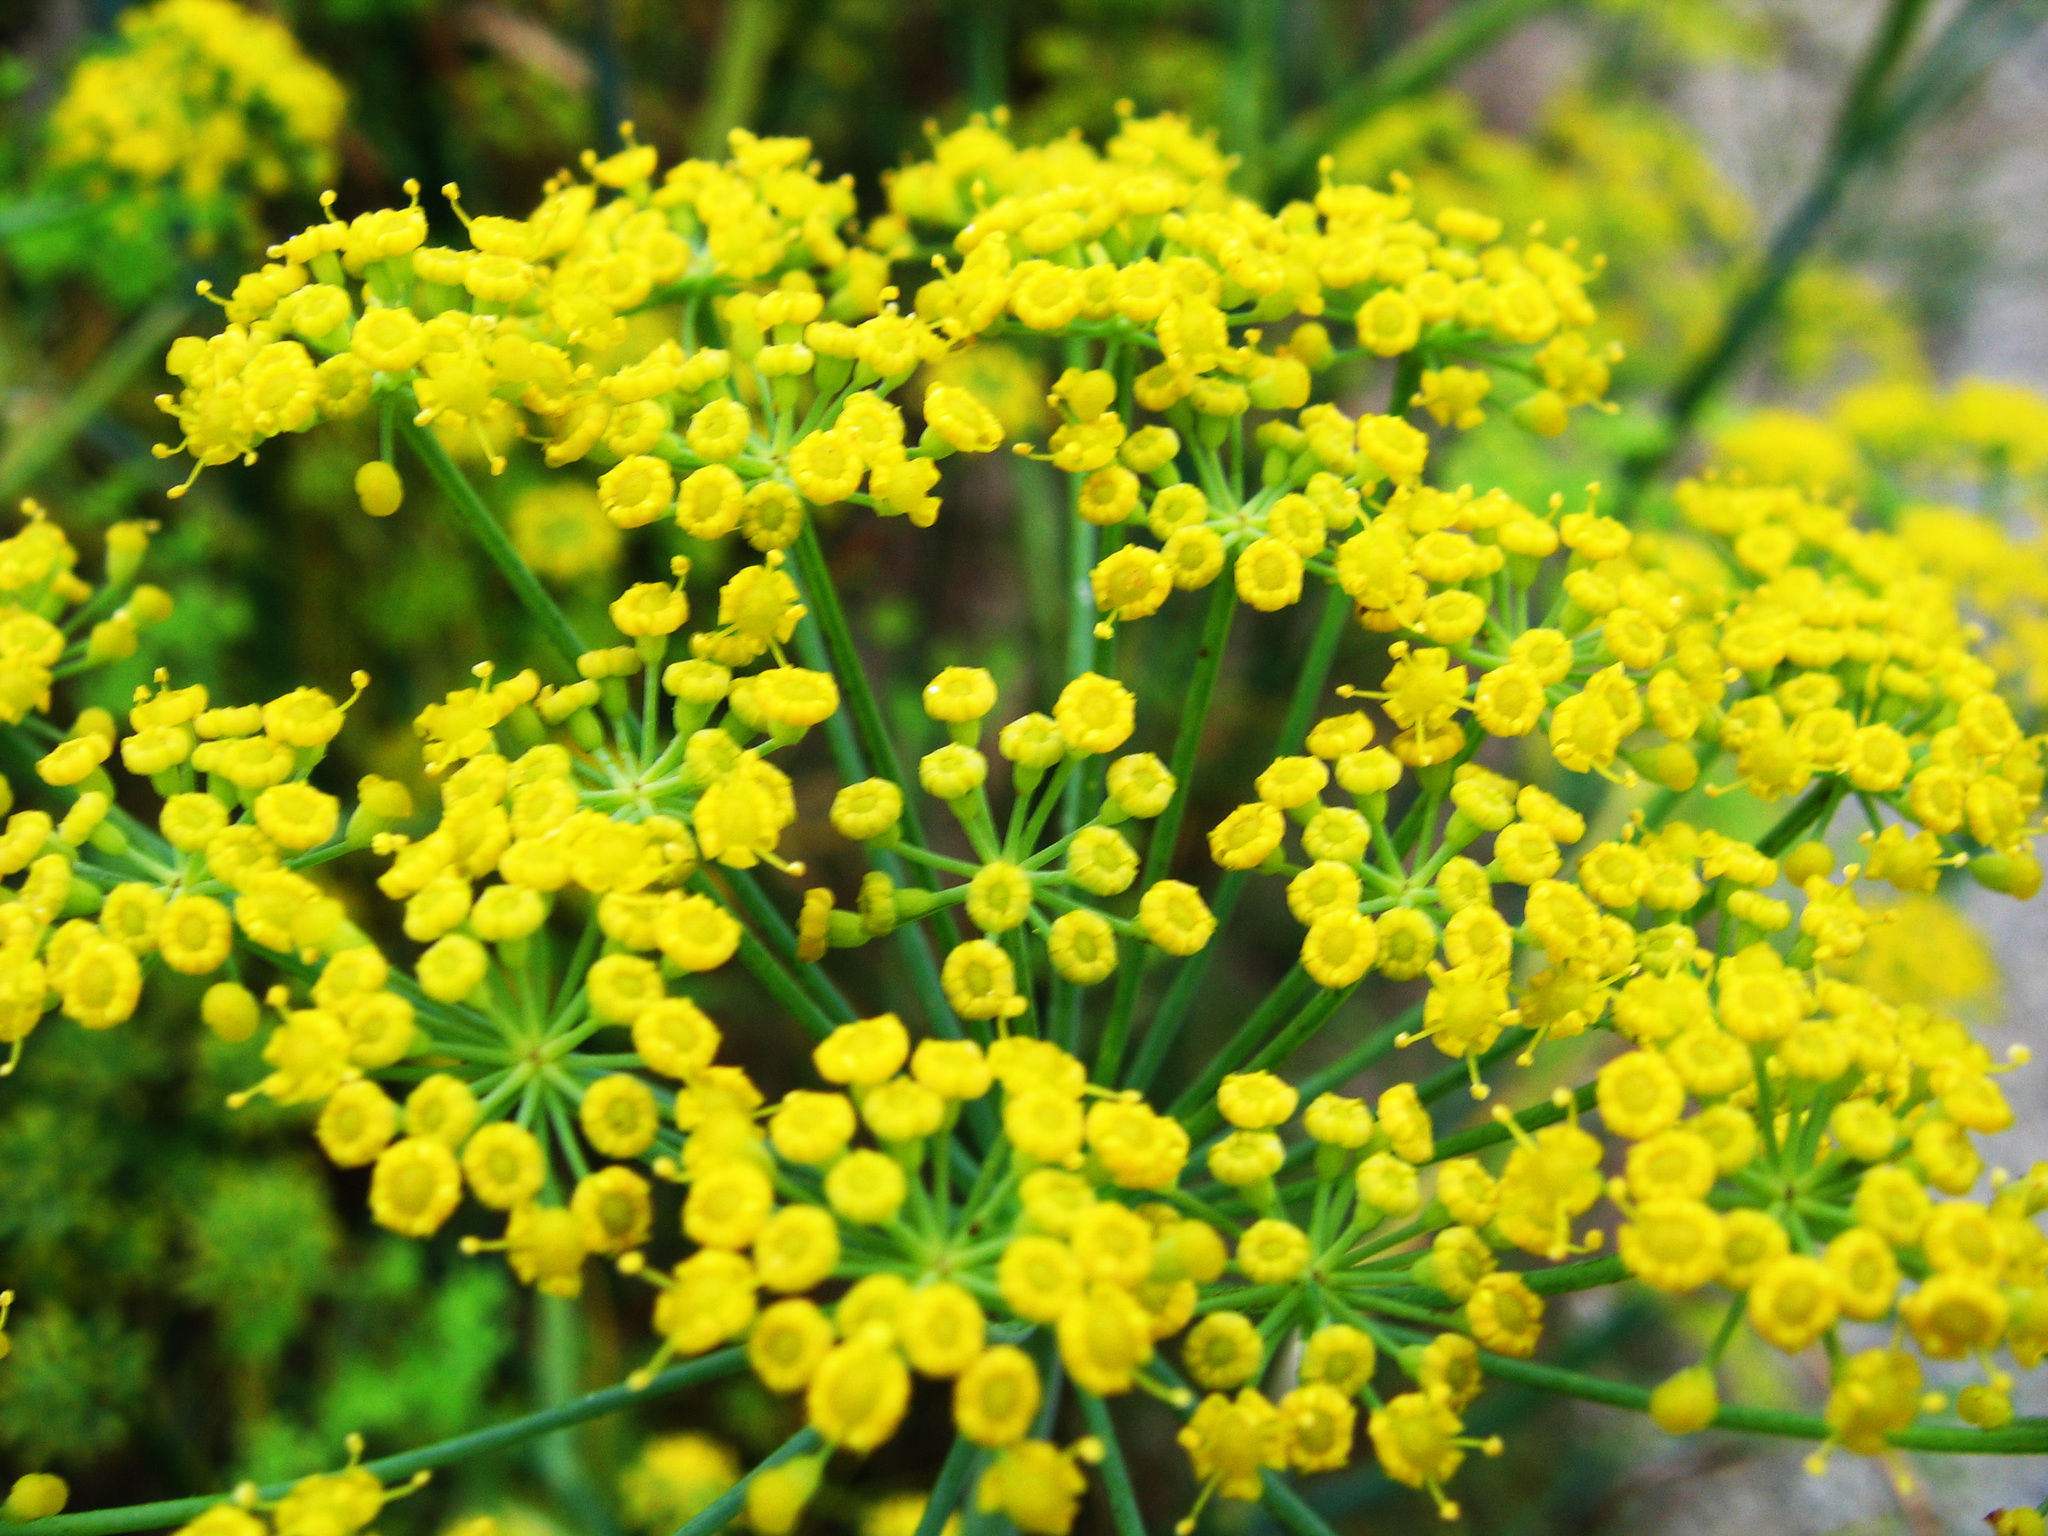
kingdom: Plantae
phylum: Tracheophyta
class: Magnoliopsida
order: Apiales
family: Apiaceae
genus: Foeniculum
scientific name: Foeniculum vulgare
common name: Fennel
